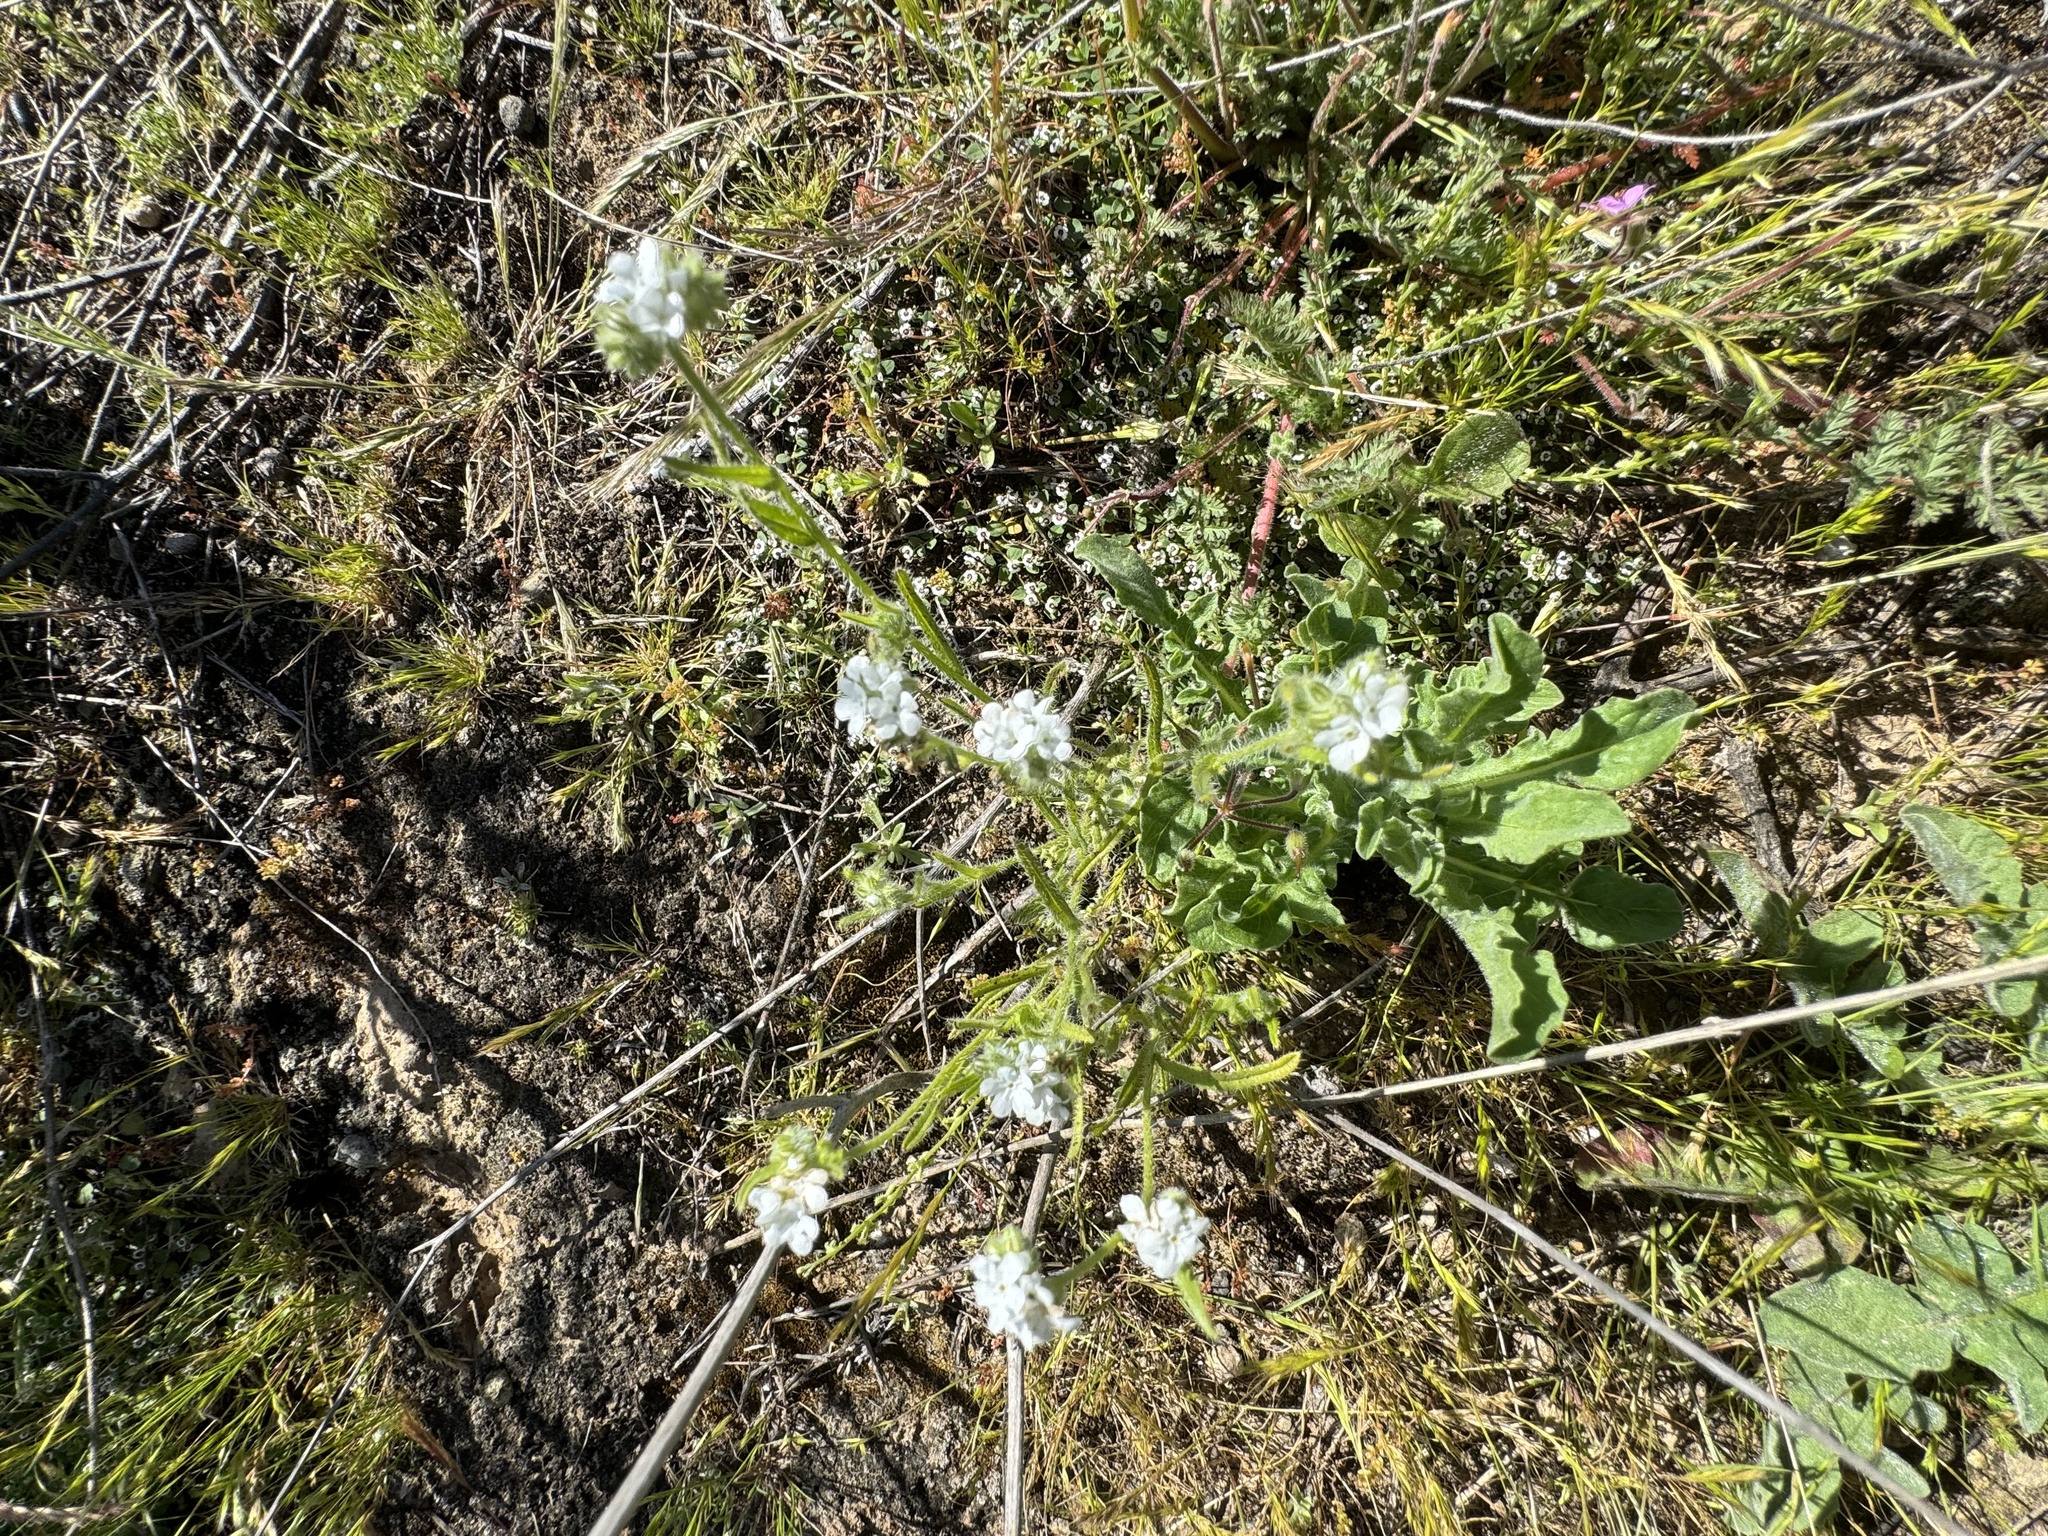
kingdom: Plantae
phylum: Tracheophyta
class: Magnoliopsida
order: Boraginales
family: Boraginaceae
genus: Cryptantha
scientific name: Cryptantha intermedia
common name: Clearwater cryptantha
